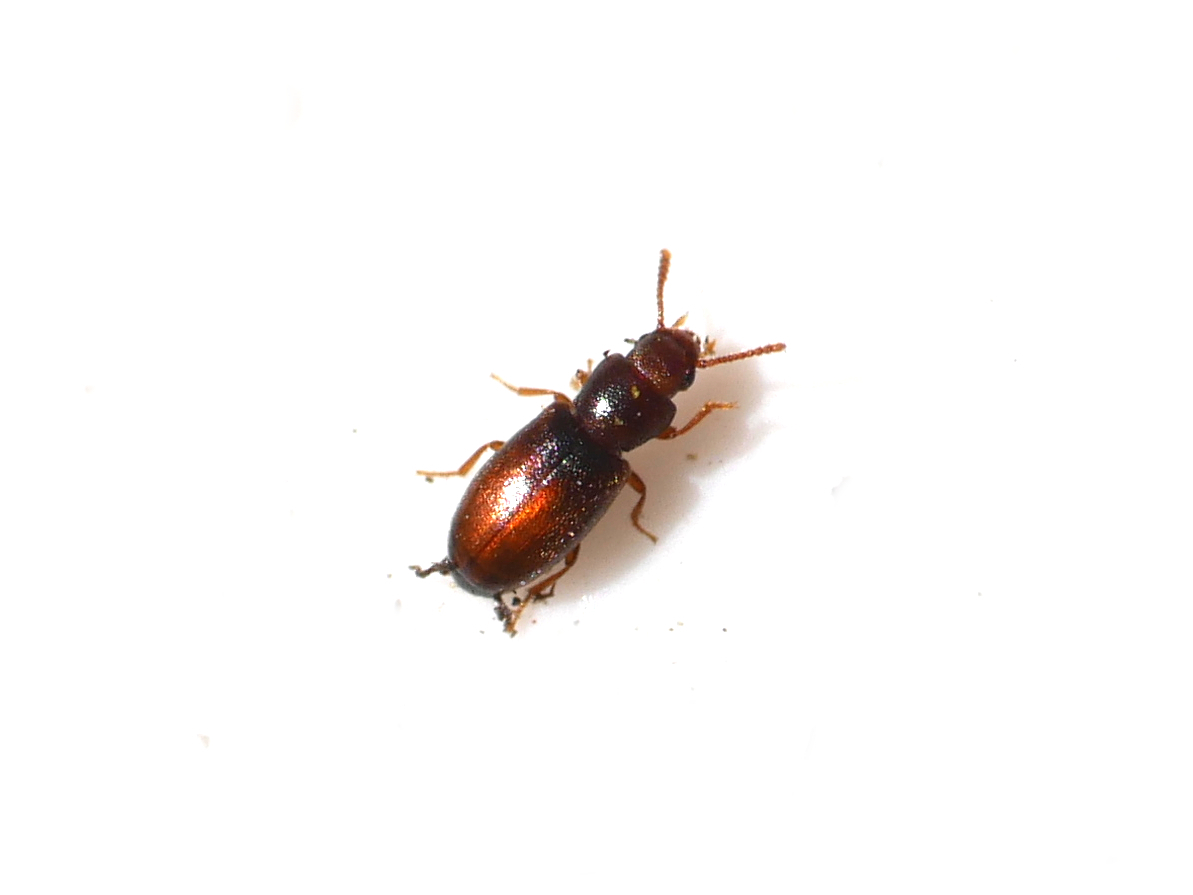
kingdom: Animalia
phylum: Arthropoda
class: Insecta
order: Coleoptera
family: Tenebrionidae
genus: Myrmechixenus
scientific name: Myrmechixenus subterraneus
